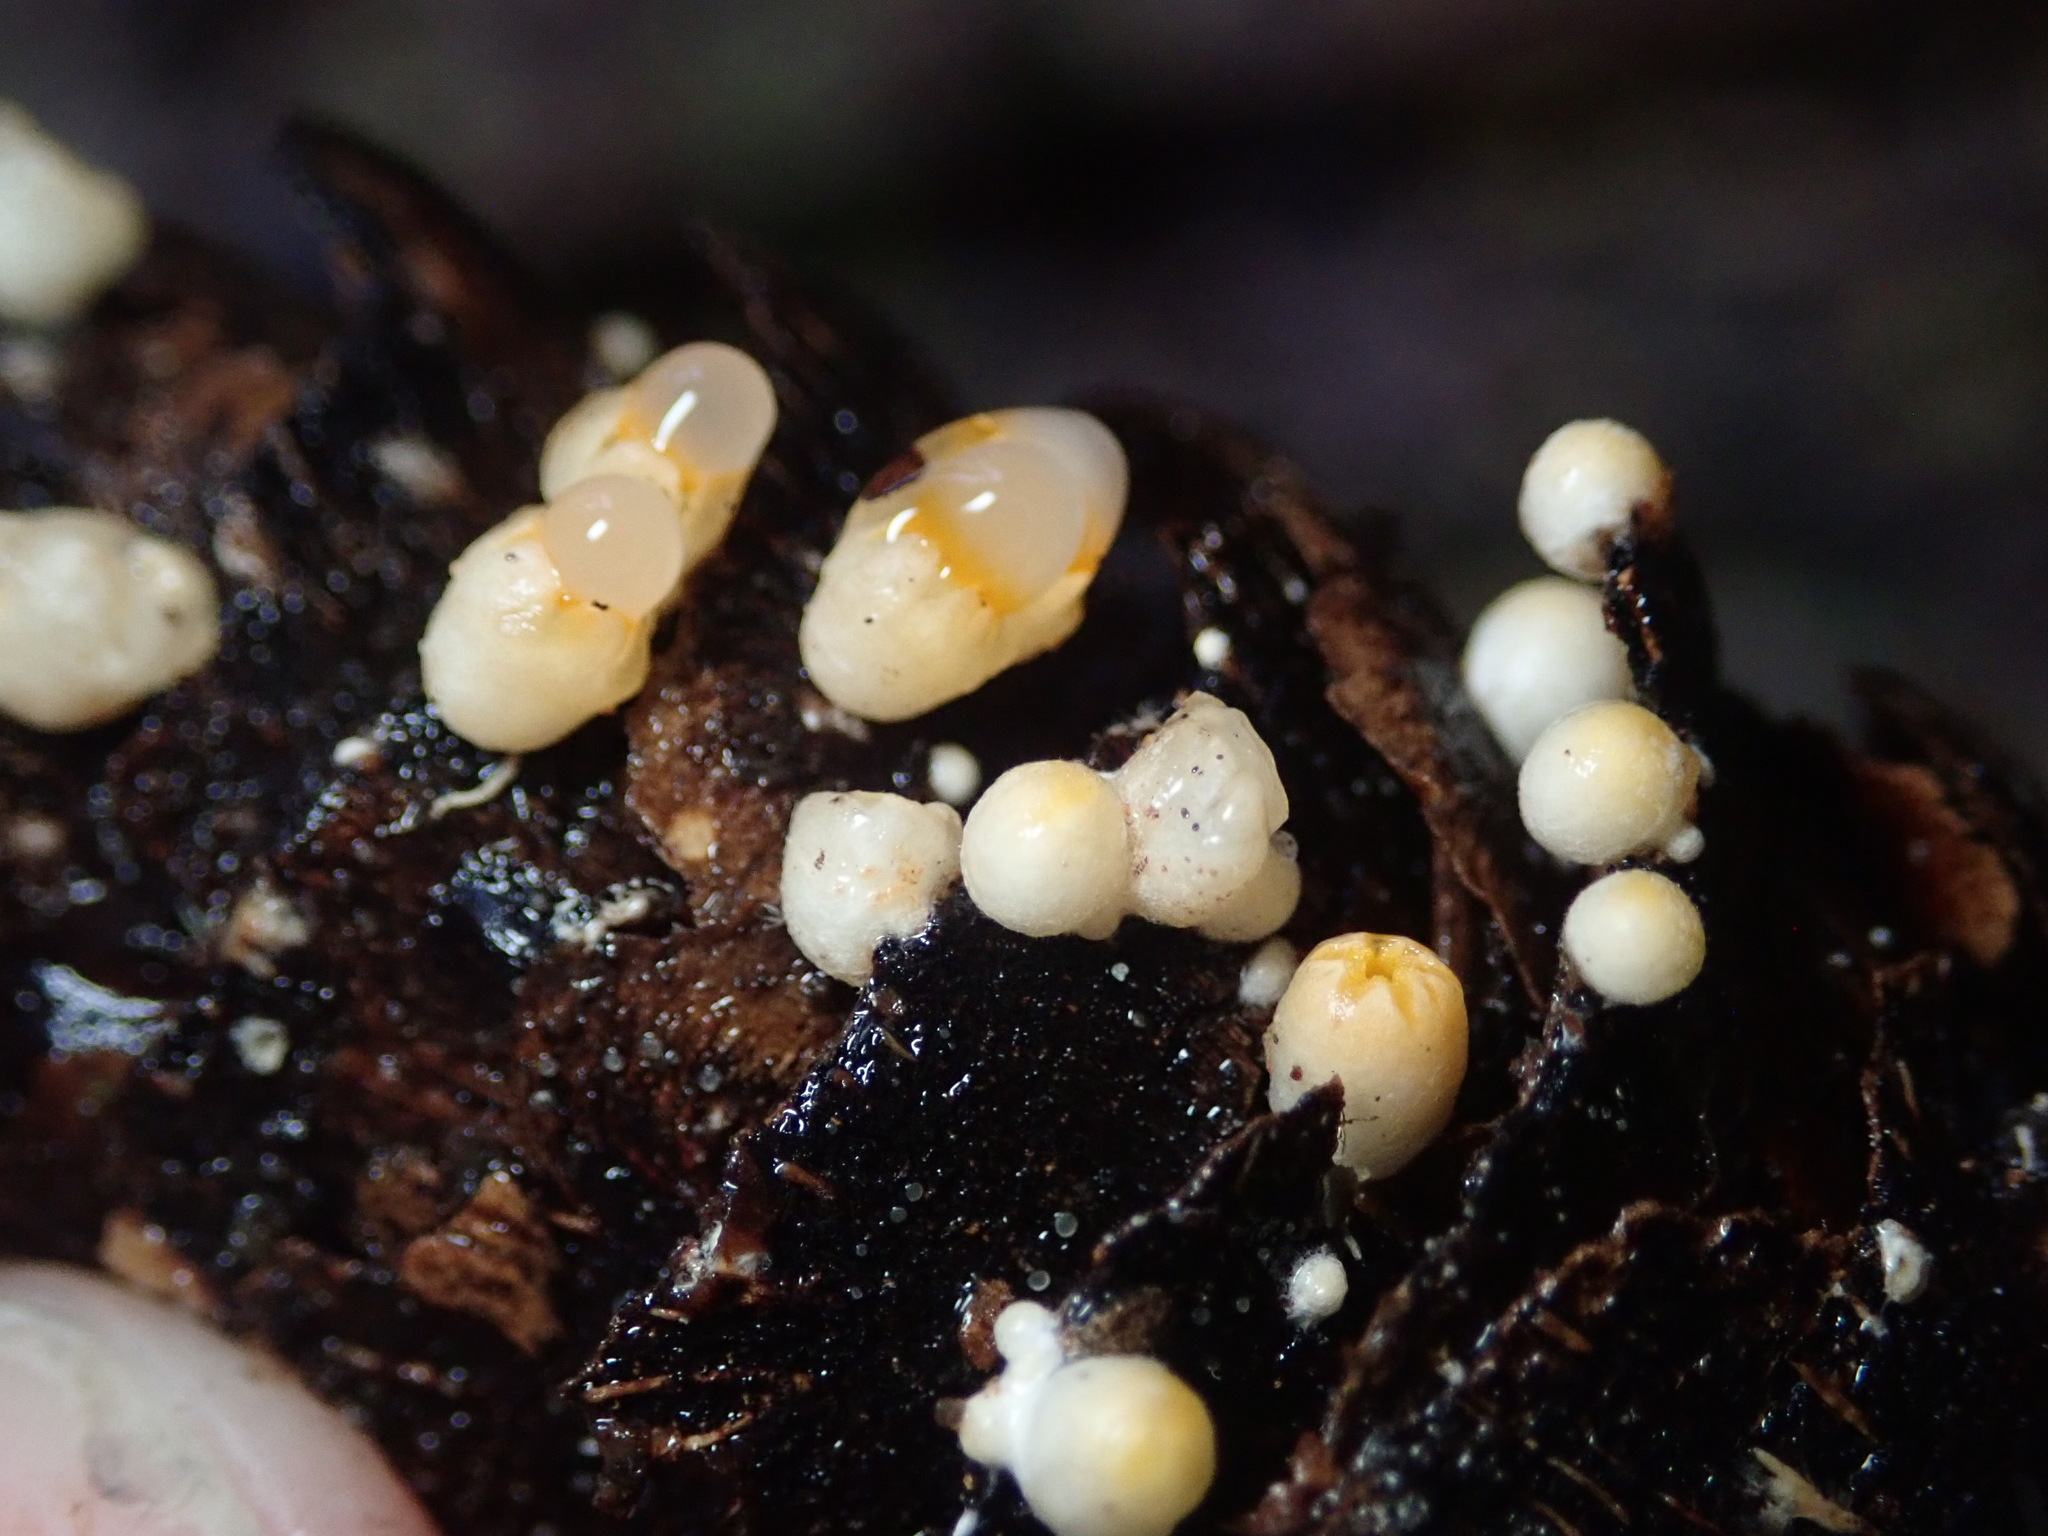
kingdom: Fungi
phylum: Basidiomycota
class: Agaricomycetes
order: Geastrales
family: Geastraceae
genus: Sphaerobolus
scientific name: Sphaerobolus stellatus
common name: Cannon fungus
